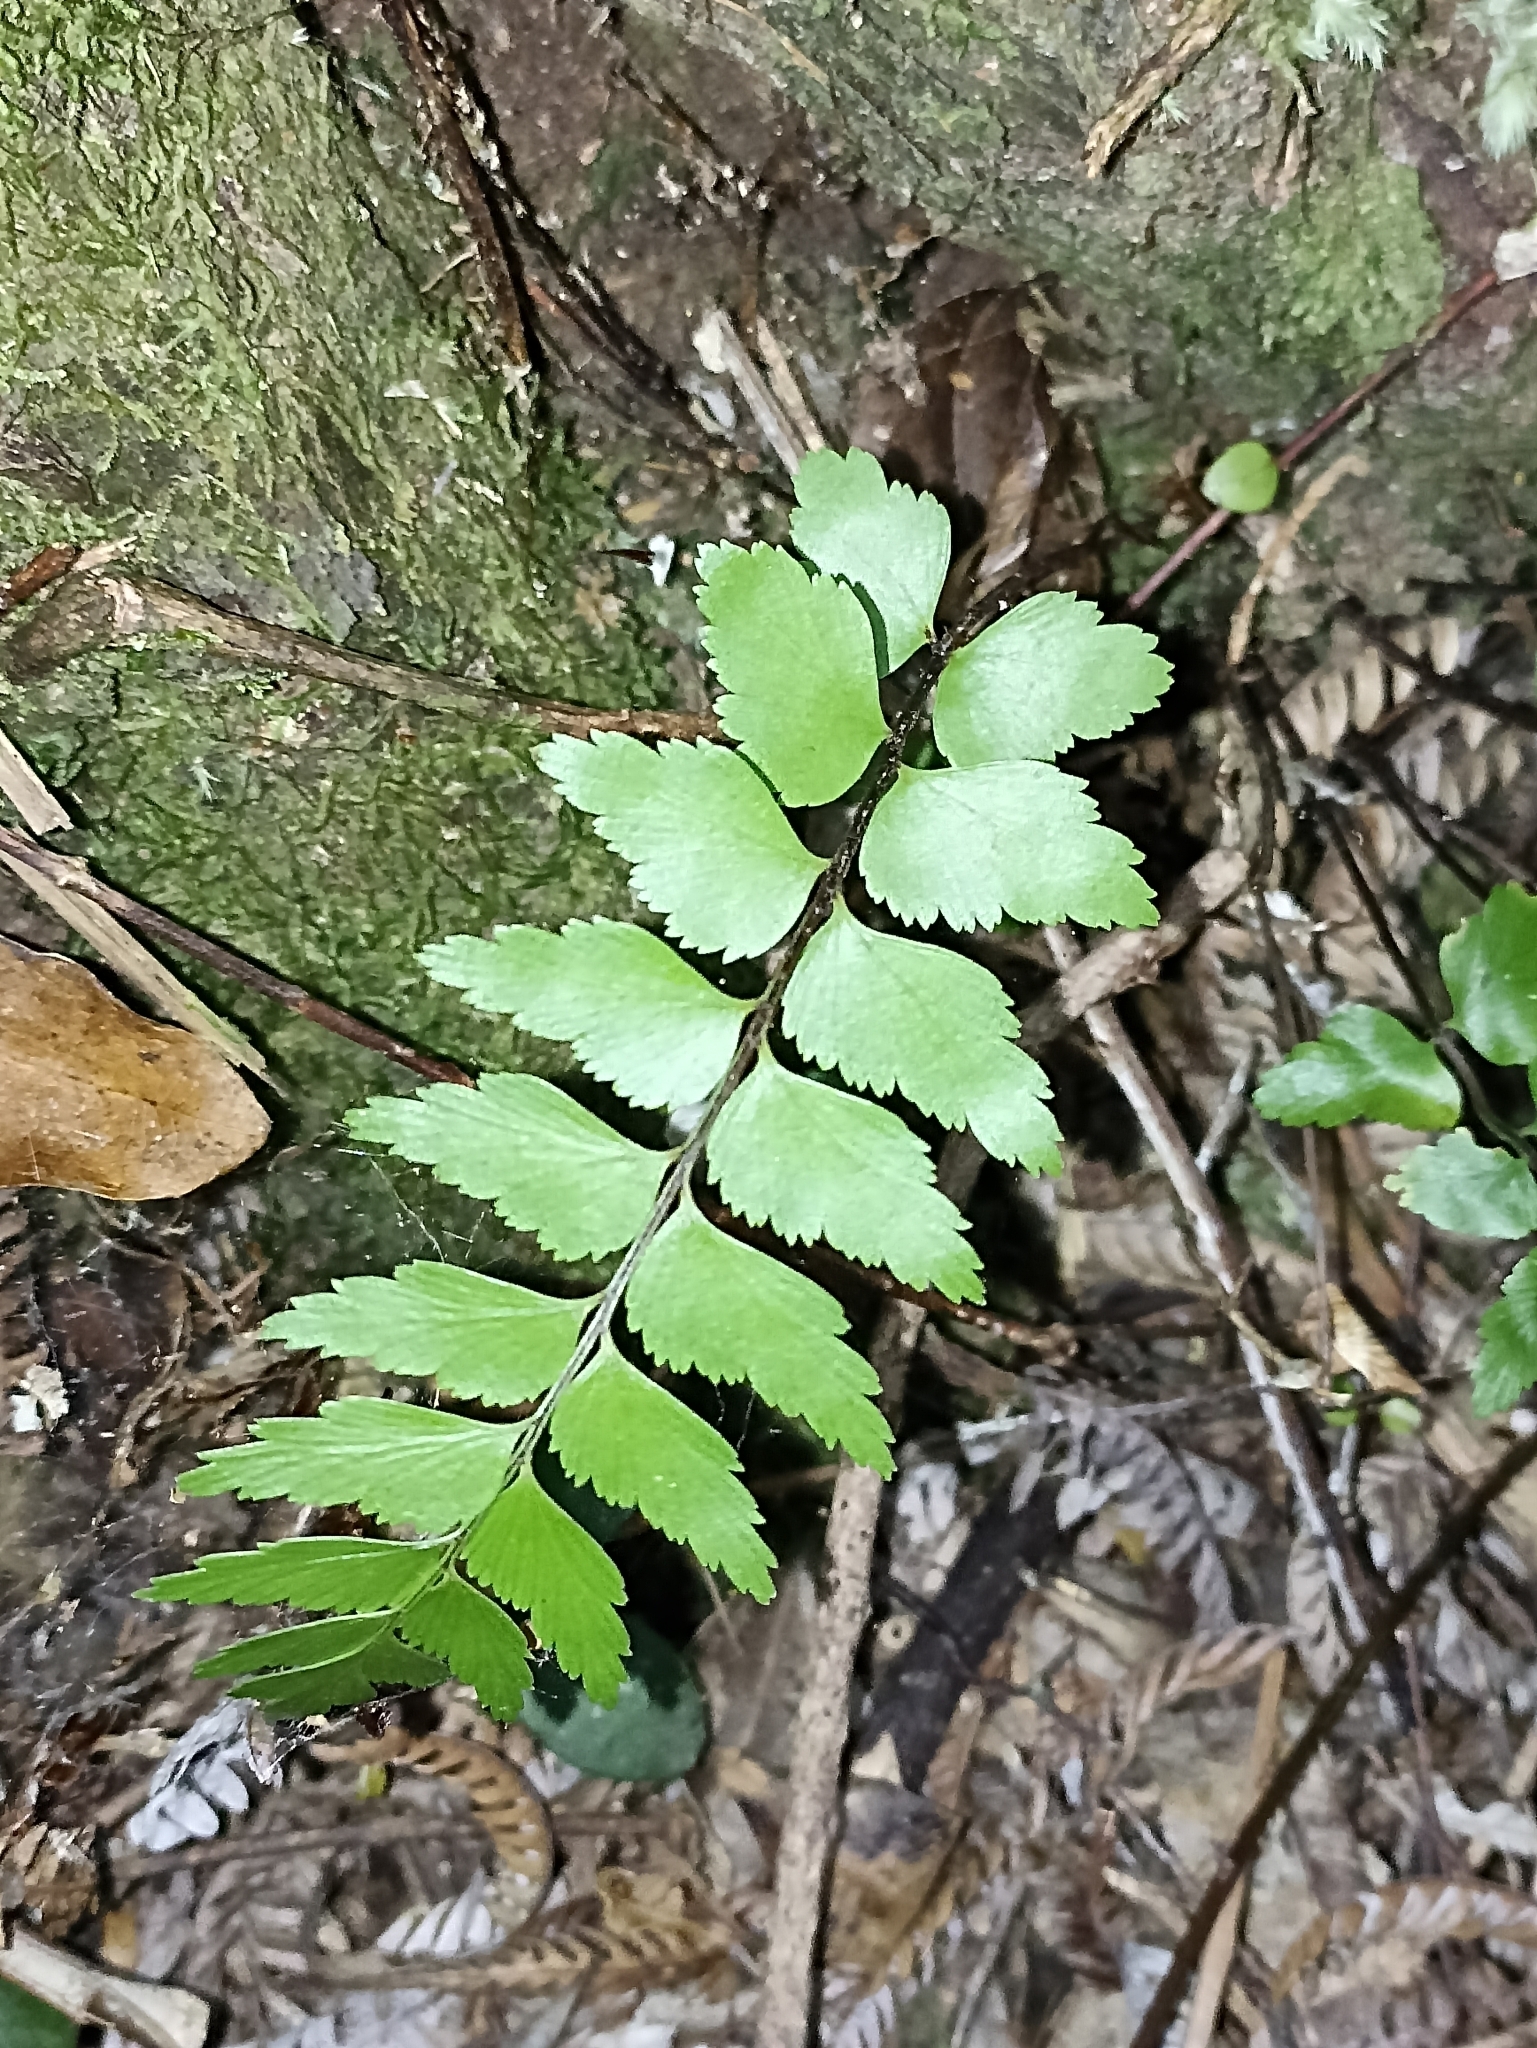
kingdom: Plantae
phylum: Tracheophyta
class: Polypodiopsida
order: Polypodiales
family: Aspleniaceae
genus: Asplenium
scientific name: Asplenium polyodon
